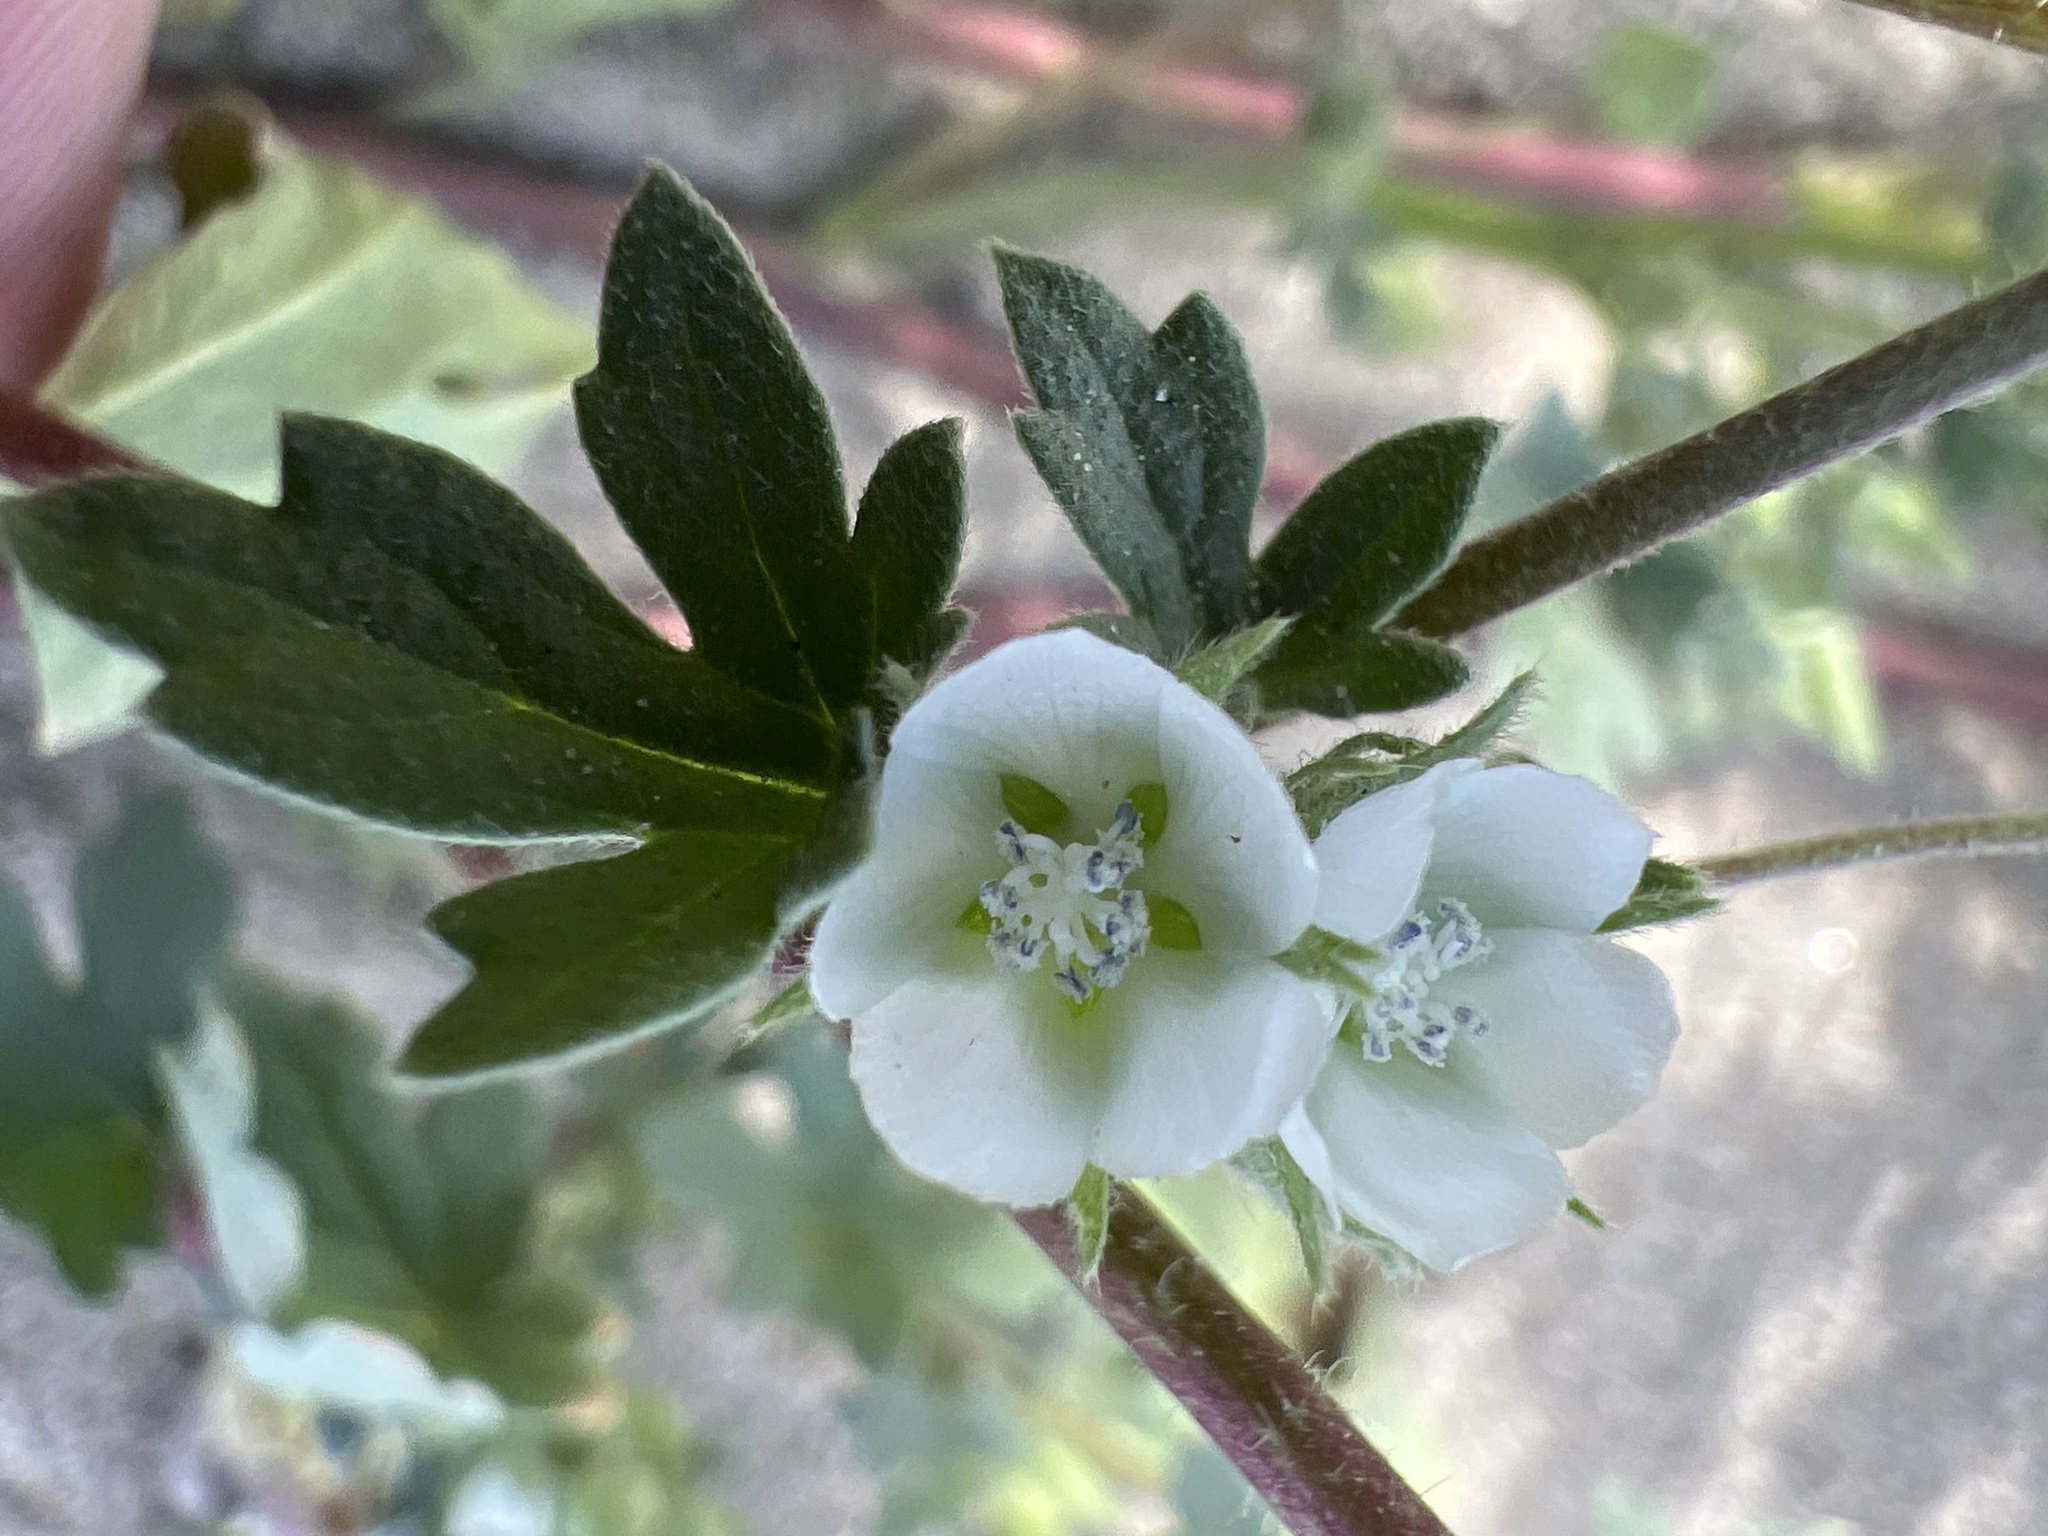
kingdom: Plantae
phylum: Tracheophyta
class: Magnoliopsida
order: Malvales
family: Malvaceae
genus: Eremalche
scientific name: Eremalche exilis
